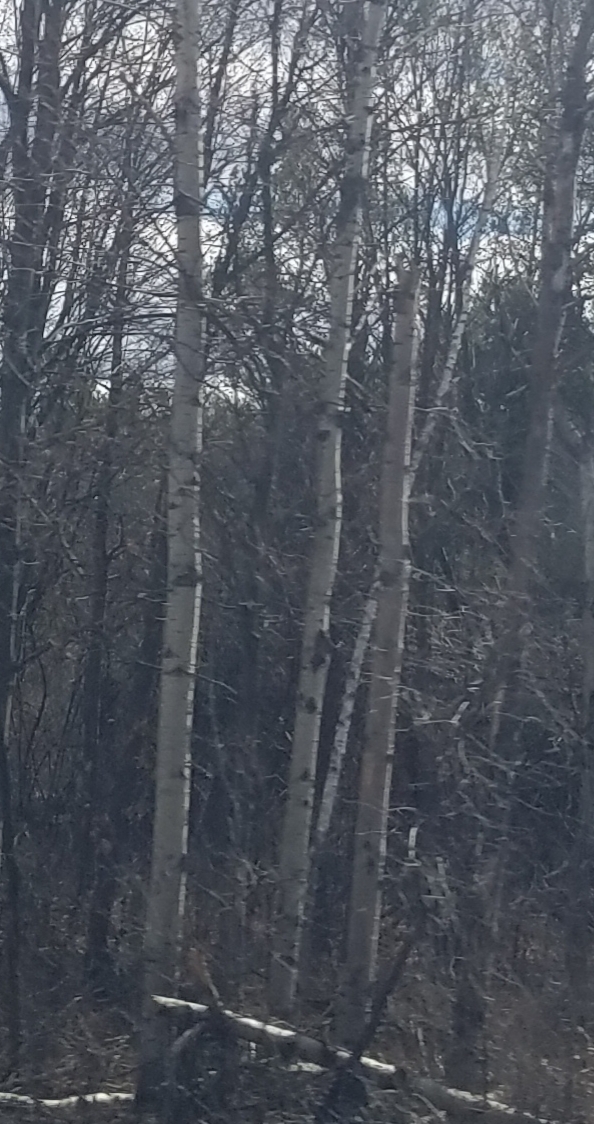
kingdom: Plantae
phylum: Tracheophyta
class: Magnoliopsida
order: Malpighiales
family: Salicaceae
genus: Populus
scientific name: Populus tremuloides
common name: Quaking aspen
